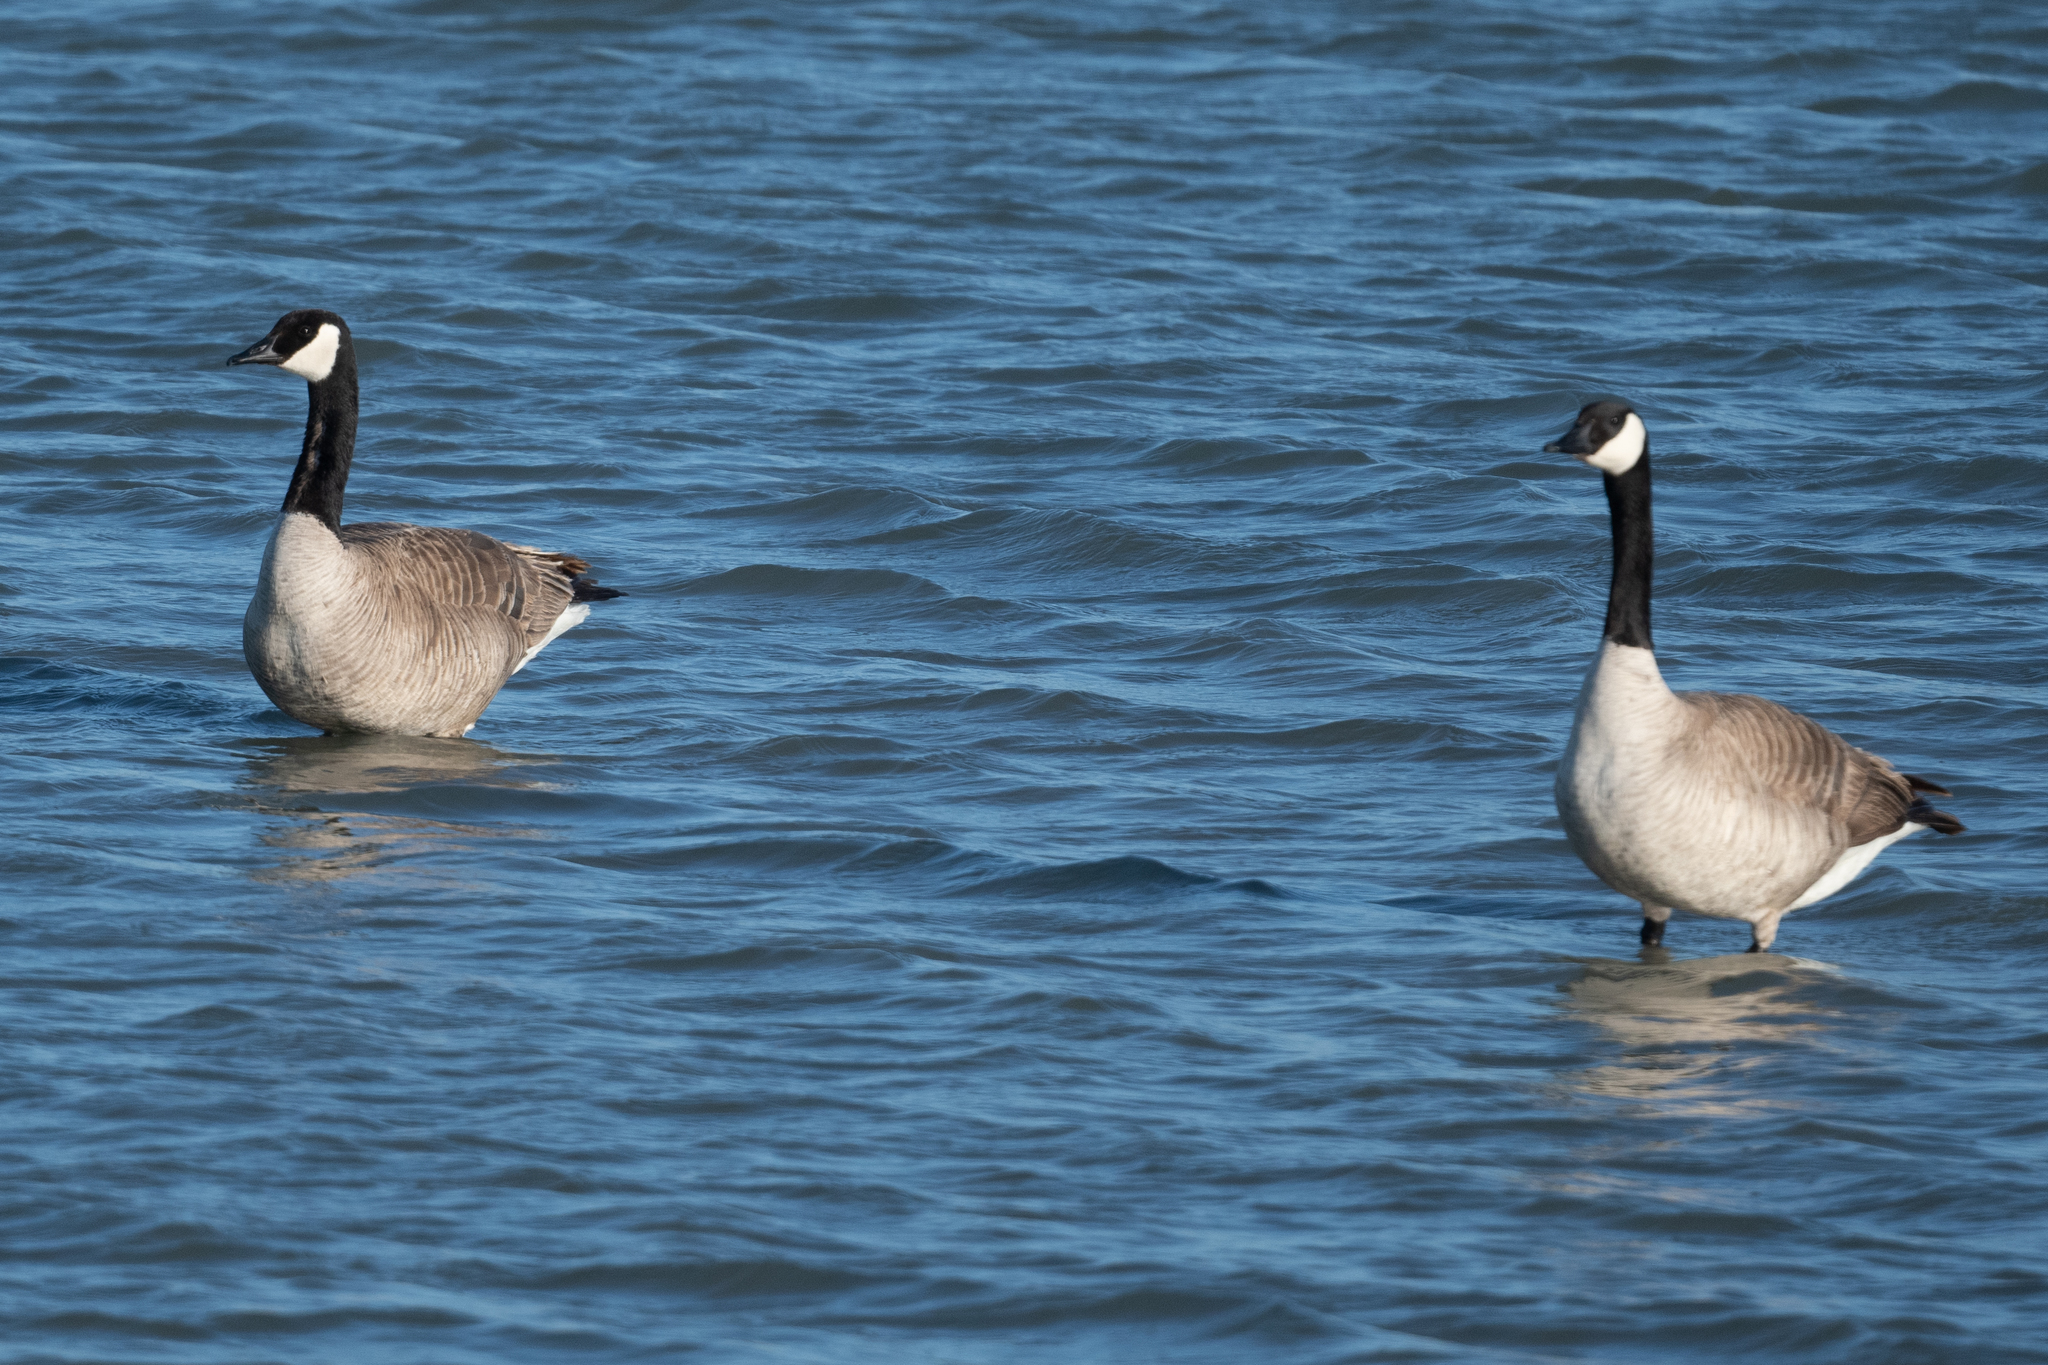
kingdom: Animalia
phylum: Chordata
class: Aves
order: Anseriformes
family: Anatidae
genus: Branta
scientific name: Branta canadensis
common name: Canada goose
